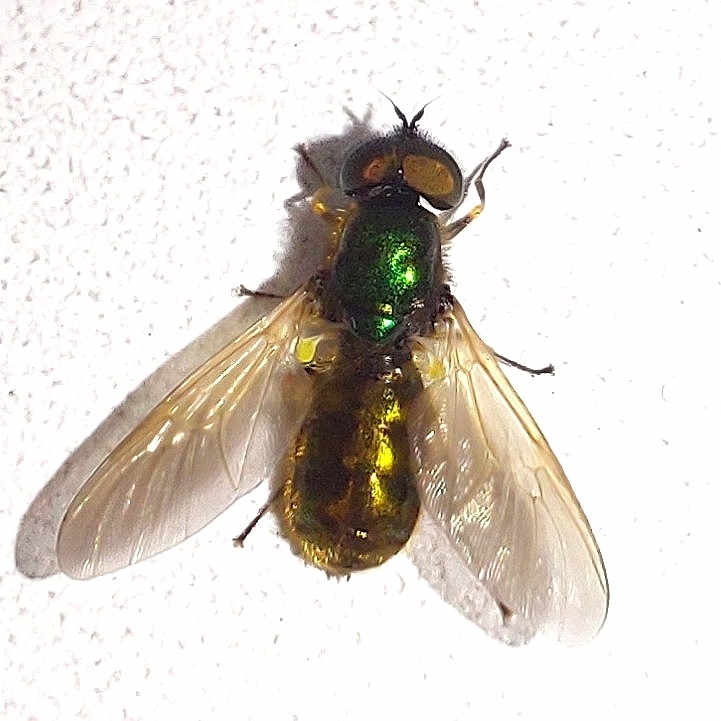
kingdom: Animalia
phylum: Arthropoda
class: Insecta
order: Diptera
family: Stratiomyidae
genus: Chloromyia
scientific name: Chloromyia formosa
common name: Soldier fly
